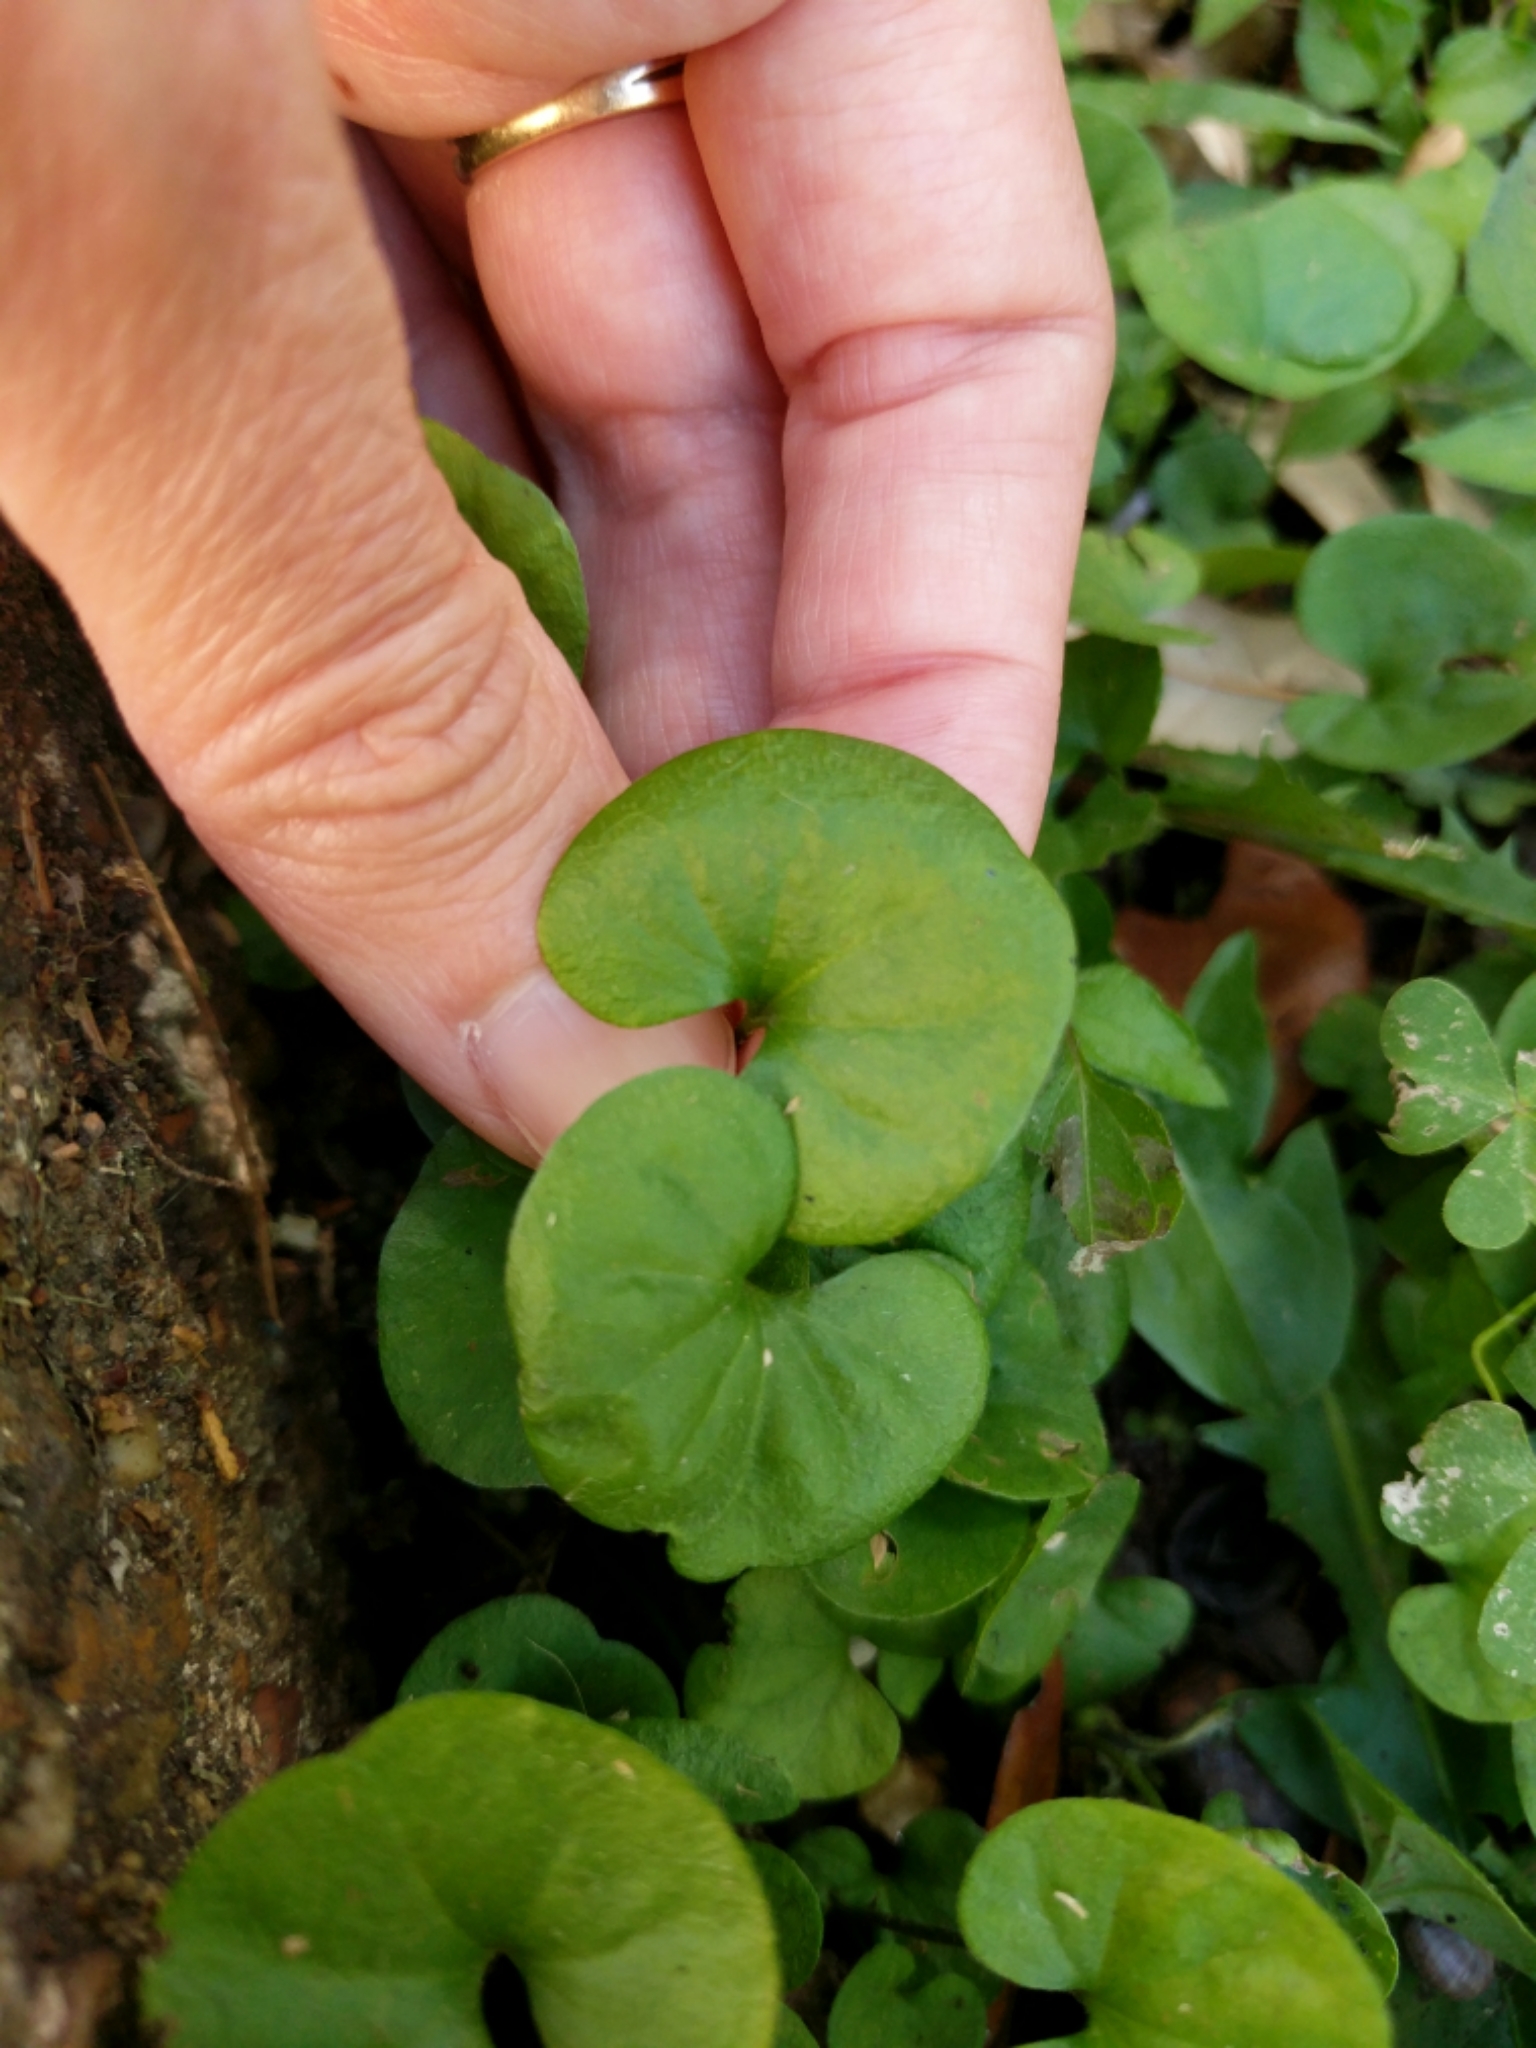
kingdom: Plantae
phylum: Tracheophyta
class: Magnoliopsida
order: Solanales
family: Convolvulaceae
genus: Dichondra
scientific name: Dichondra carolinensis
